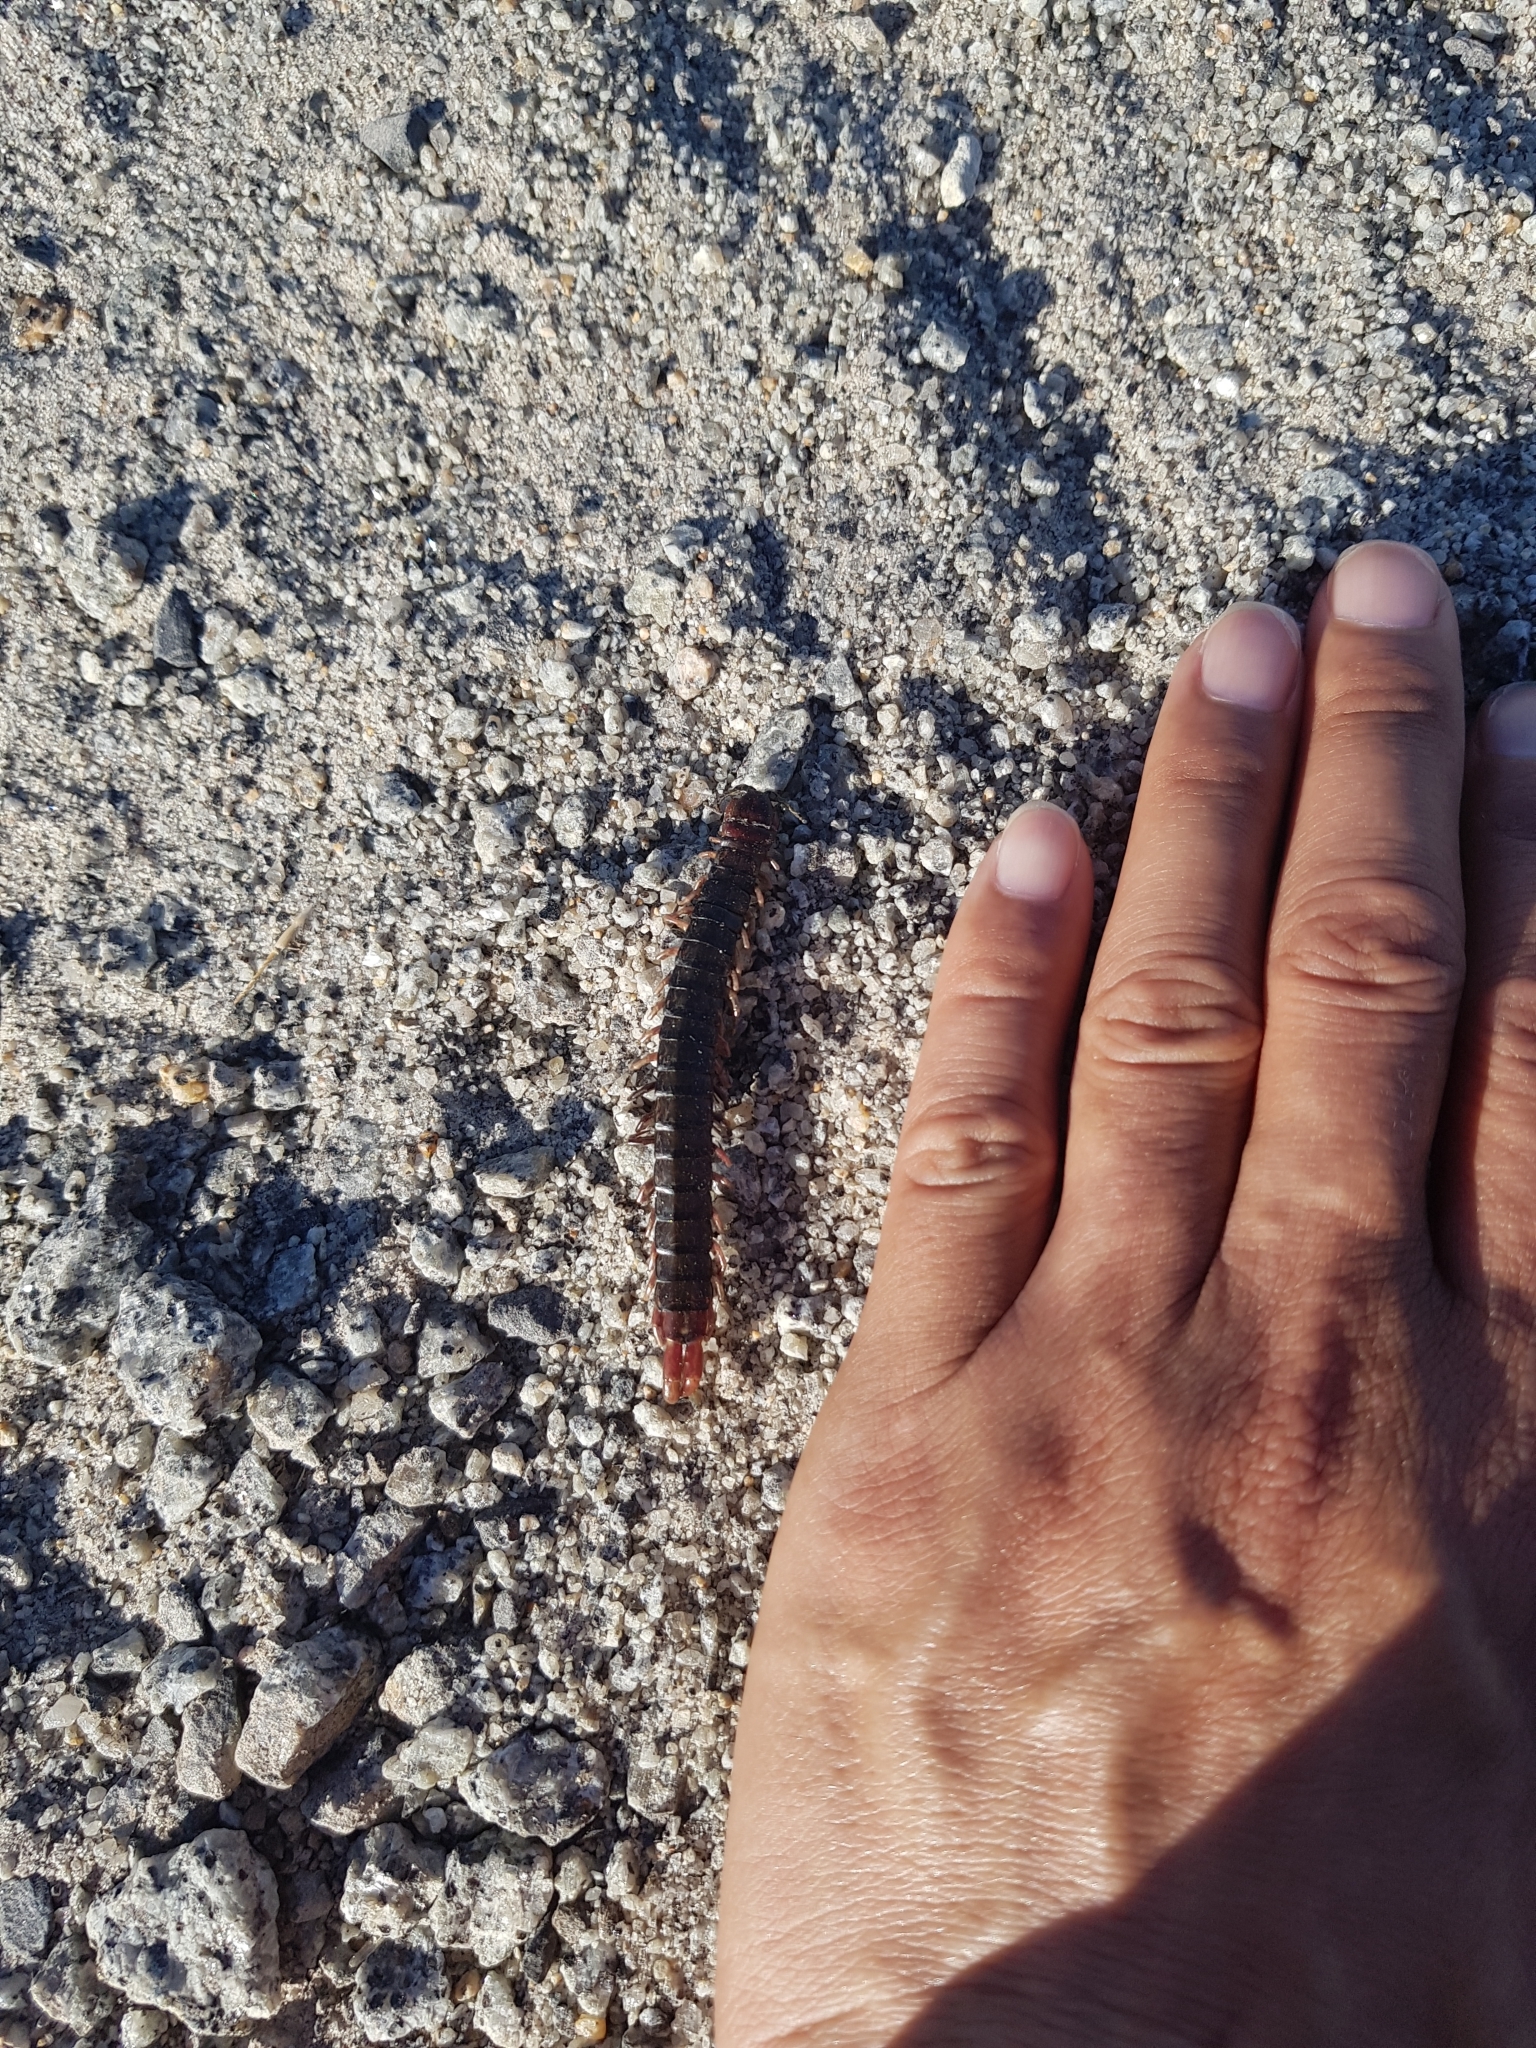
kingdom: Animalia
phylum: Arthropoda
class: Chilopoda
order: Scolopendromorpha
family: Scolopendridae
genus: Cormocephalus
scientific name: Cormocephalus aurantiipes
